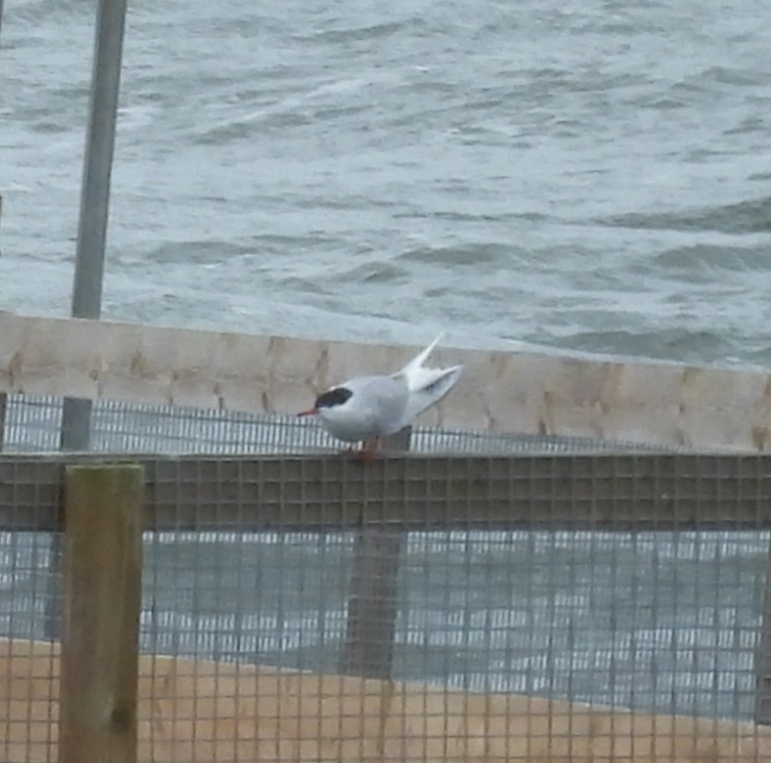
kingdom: Animalia
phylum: Chordata
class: Aves
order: Charadriiformes
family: Laridae
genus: Sterna
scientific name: Sterna hirundo
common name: Common tern
